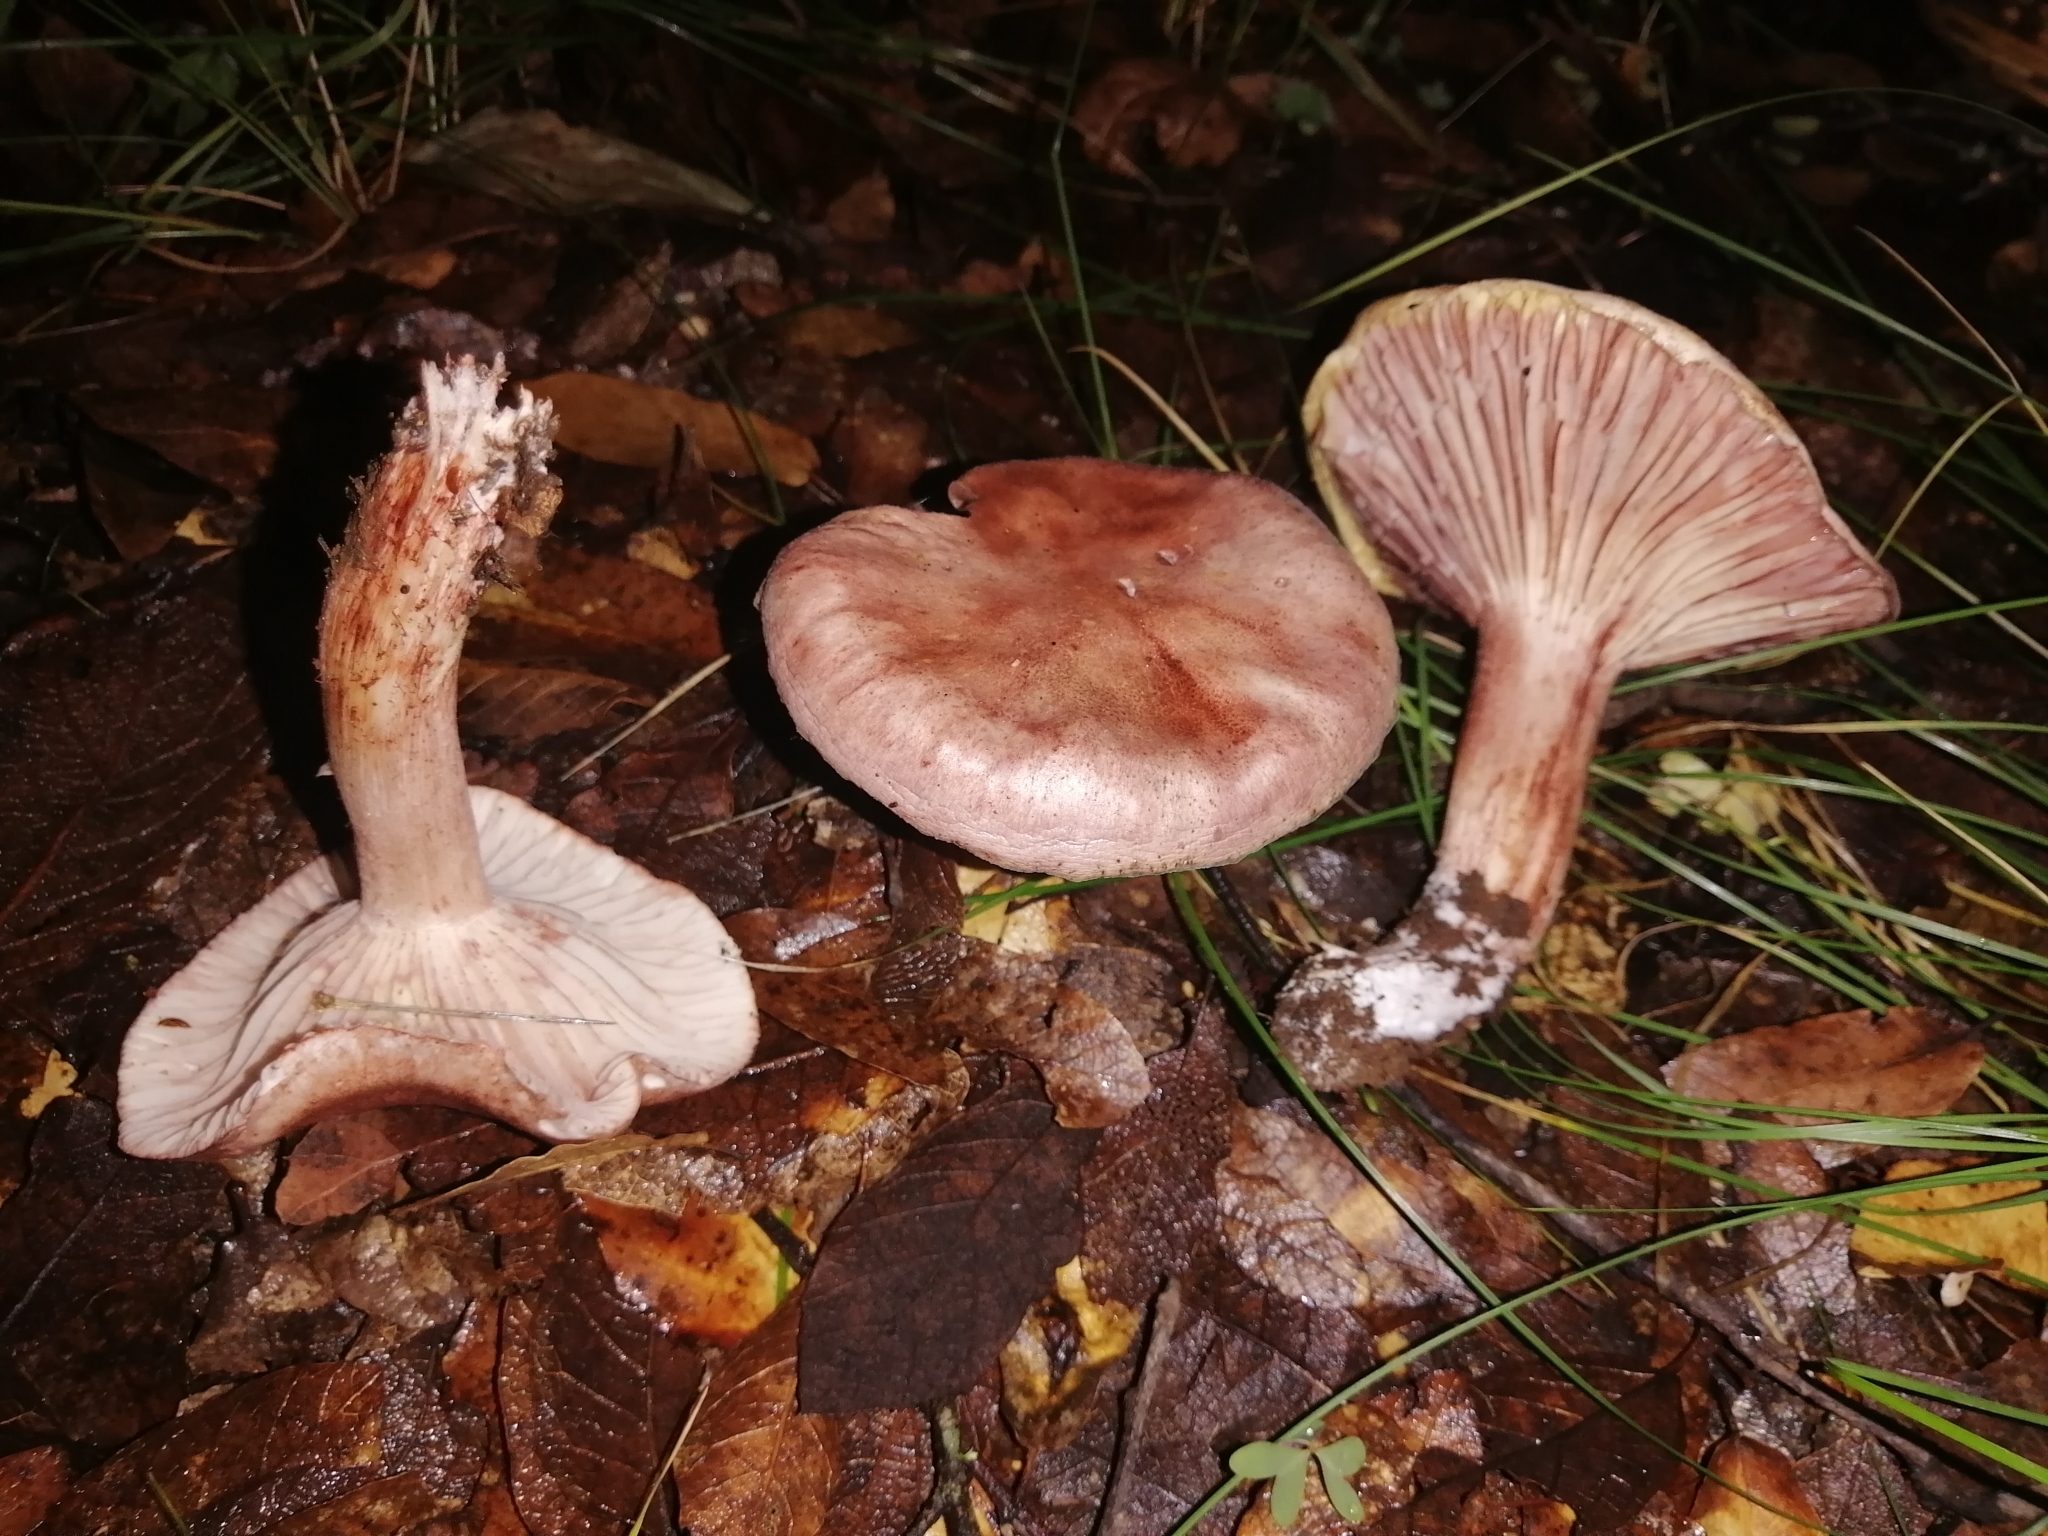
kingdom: Fungi
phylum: Basidiomycota
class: Agaricomycetes
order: Agaricales
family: Hygrophoraceae
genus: Hygrophorus
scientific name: Hygrophorus russula
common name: Pinkmottle woodwax
